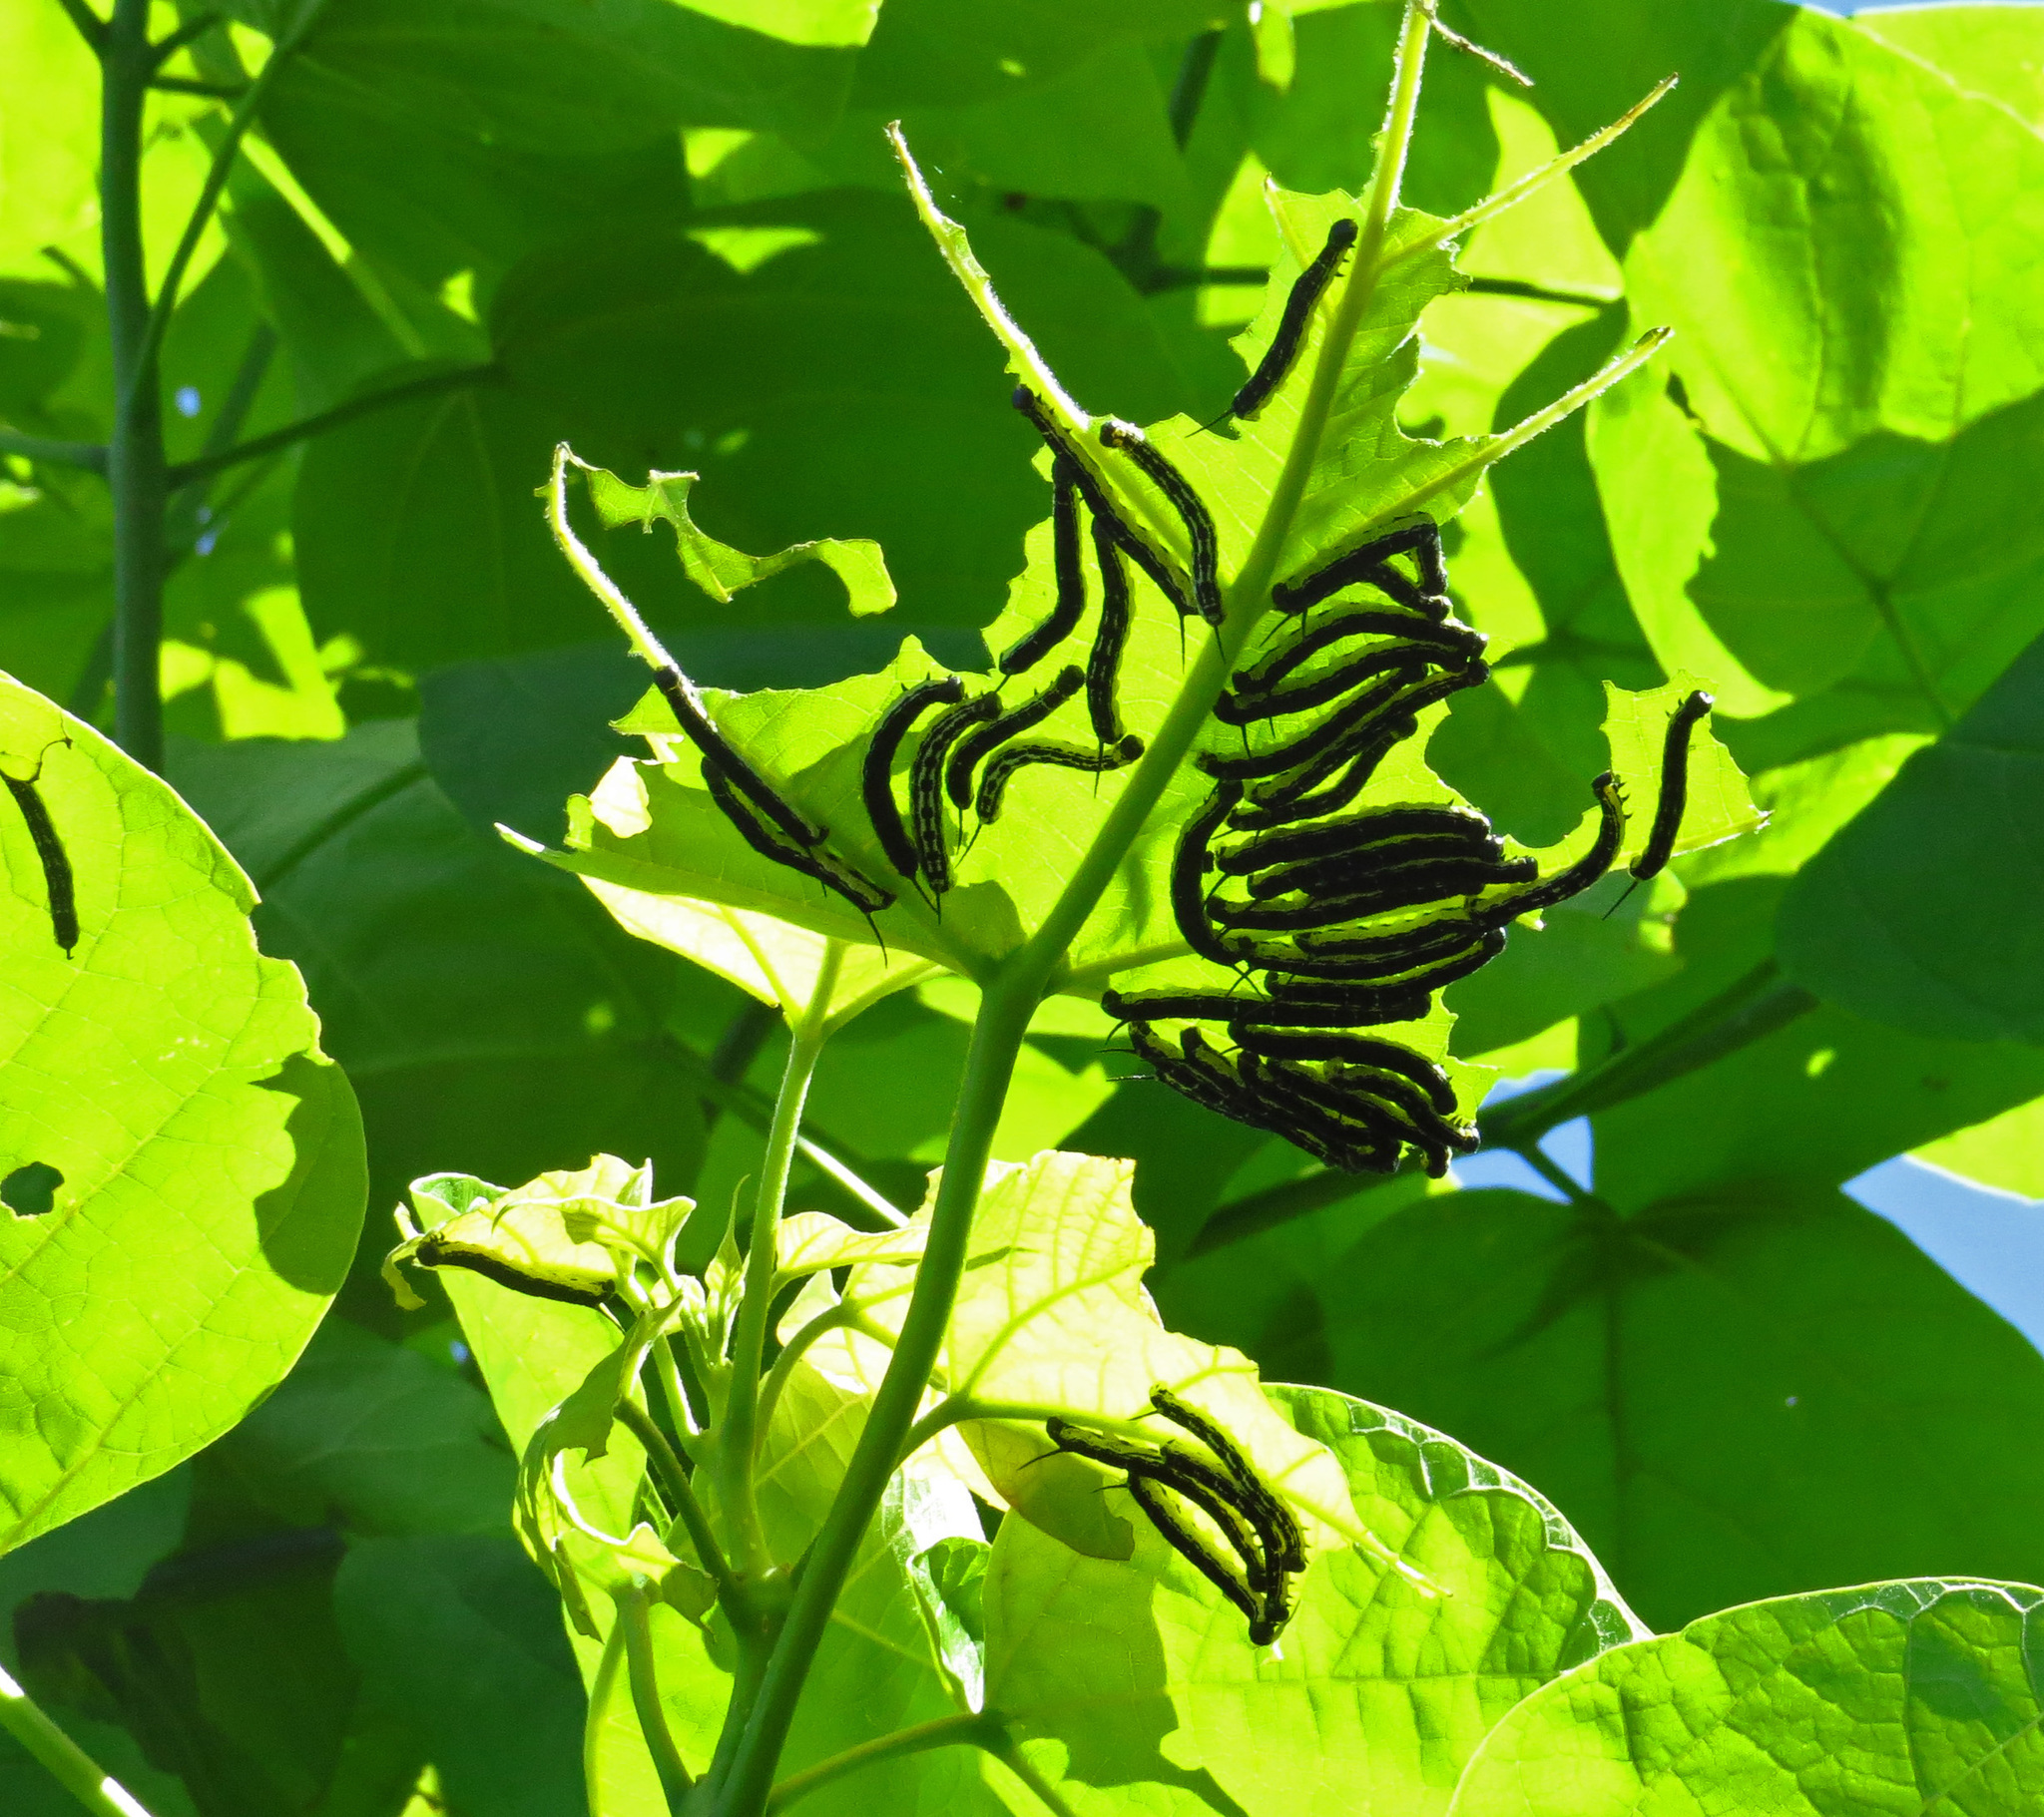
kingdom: Animalia
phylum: Arthropoda
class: Insecta
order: Lepidoptera
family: Sphingidae
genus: Ceratomia
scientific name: Ceratomia catalpae
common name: Catalpa hornworm
